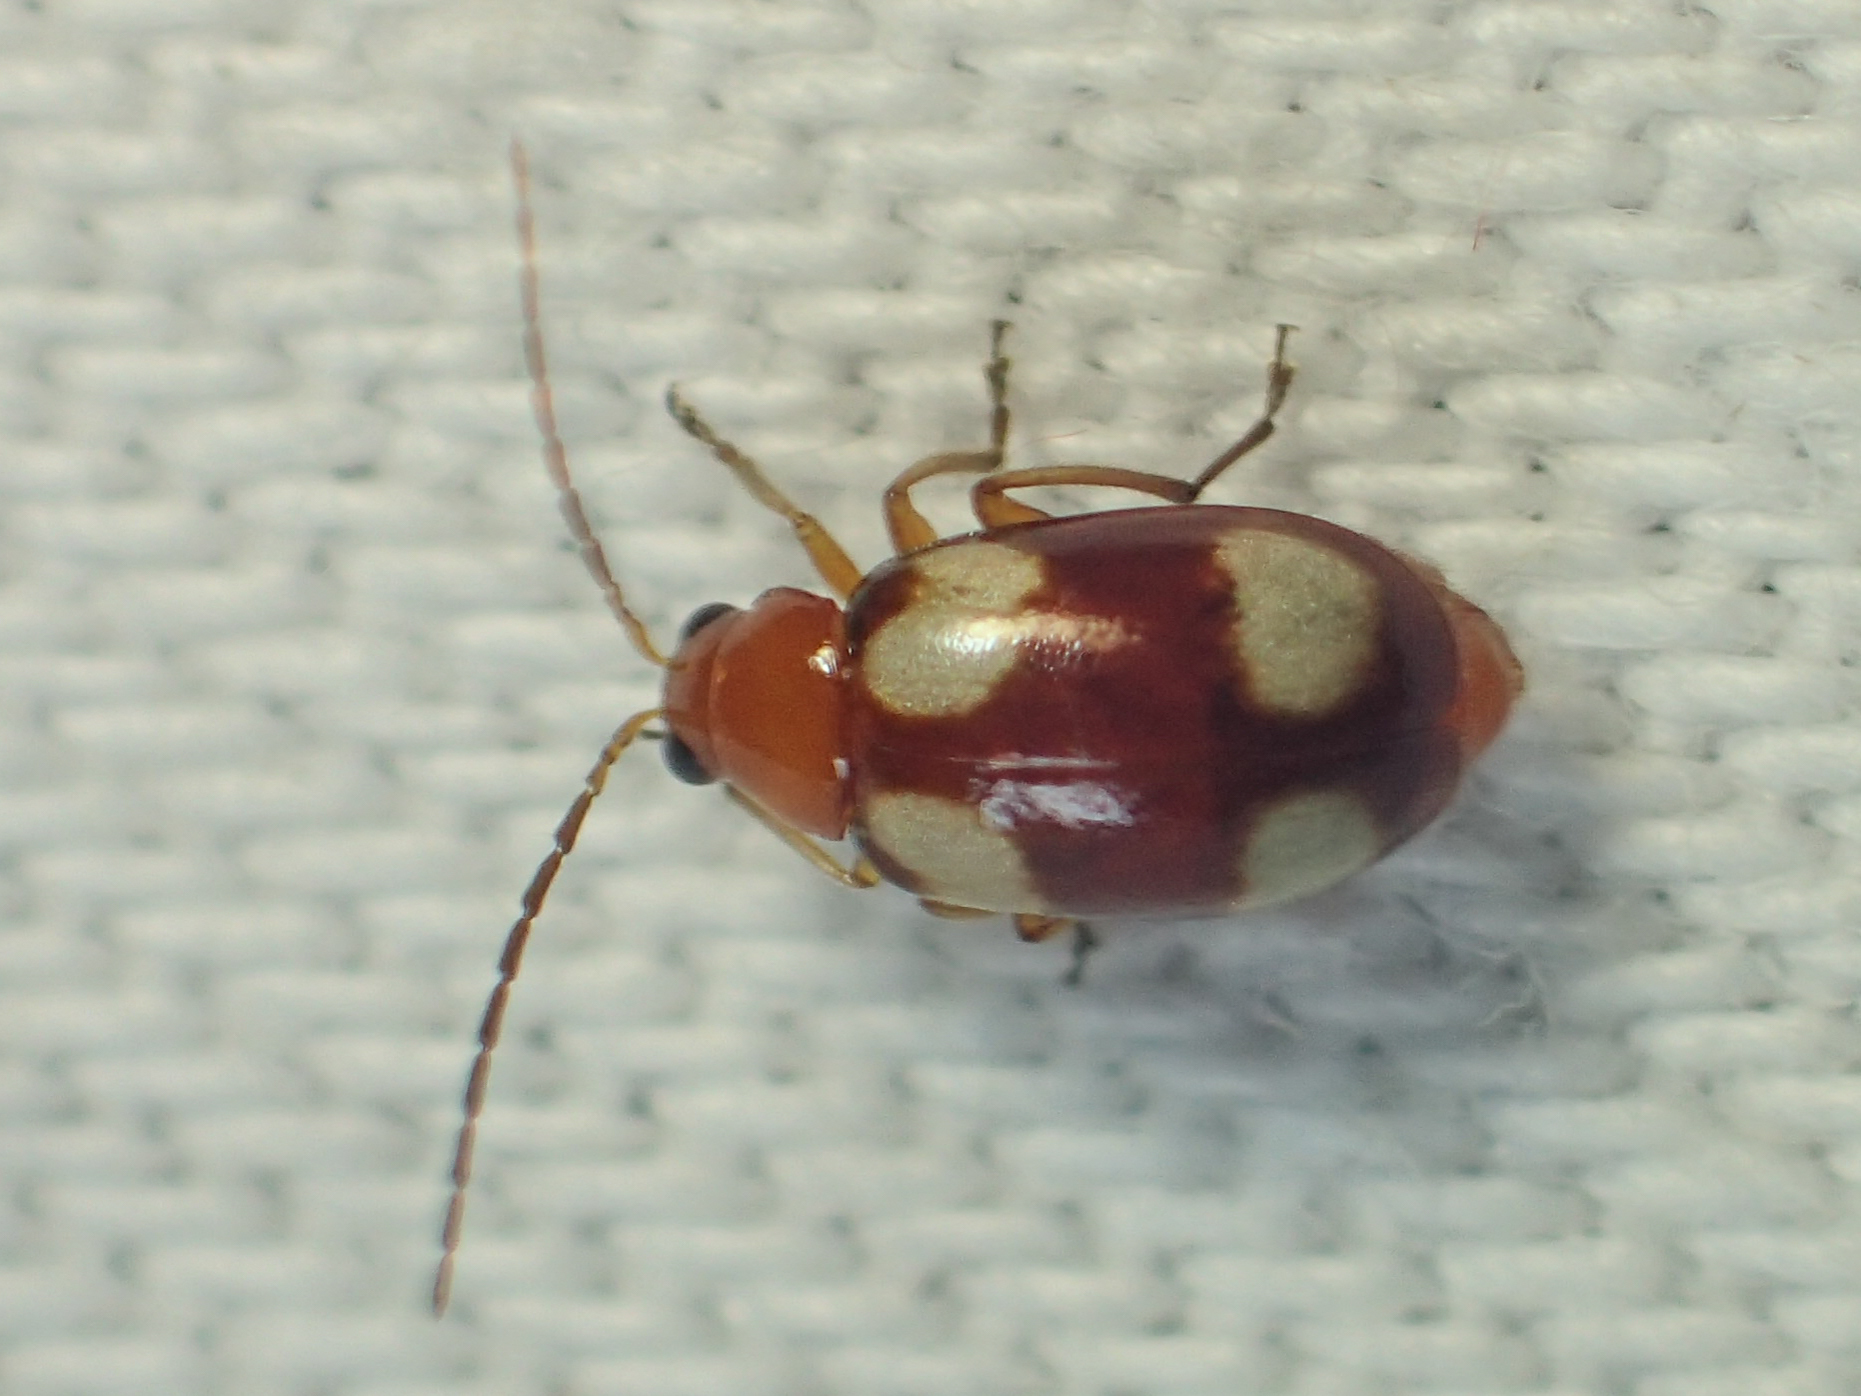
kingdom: Animalia
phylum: Arthropoda
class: Insecta
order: Coleoptera
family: Chrysomelidae
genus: Monolepta
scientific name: Monolepta signata
